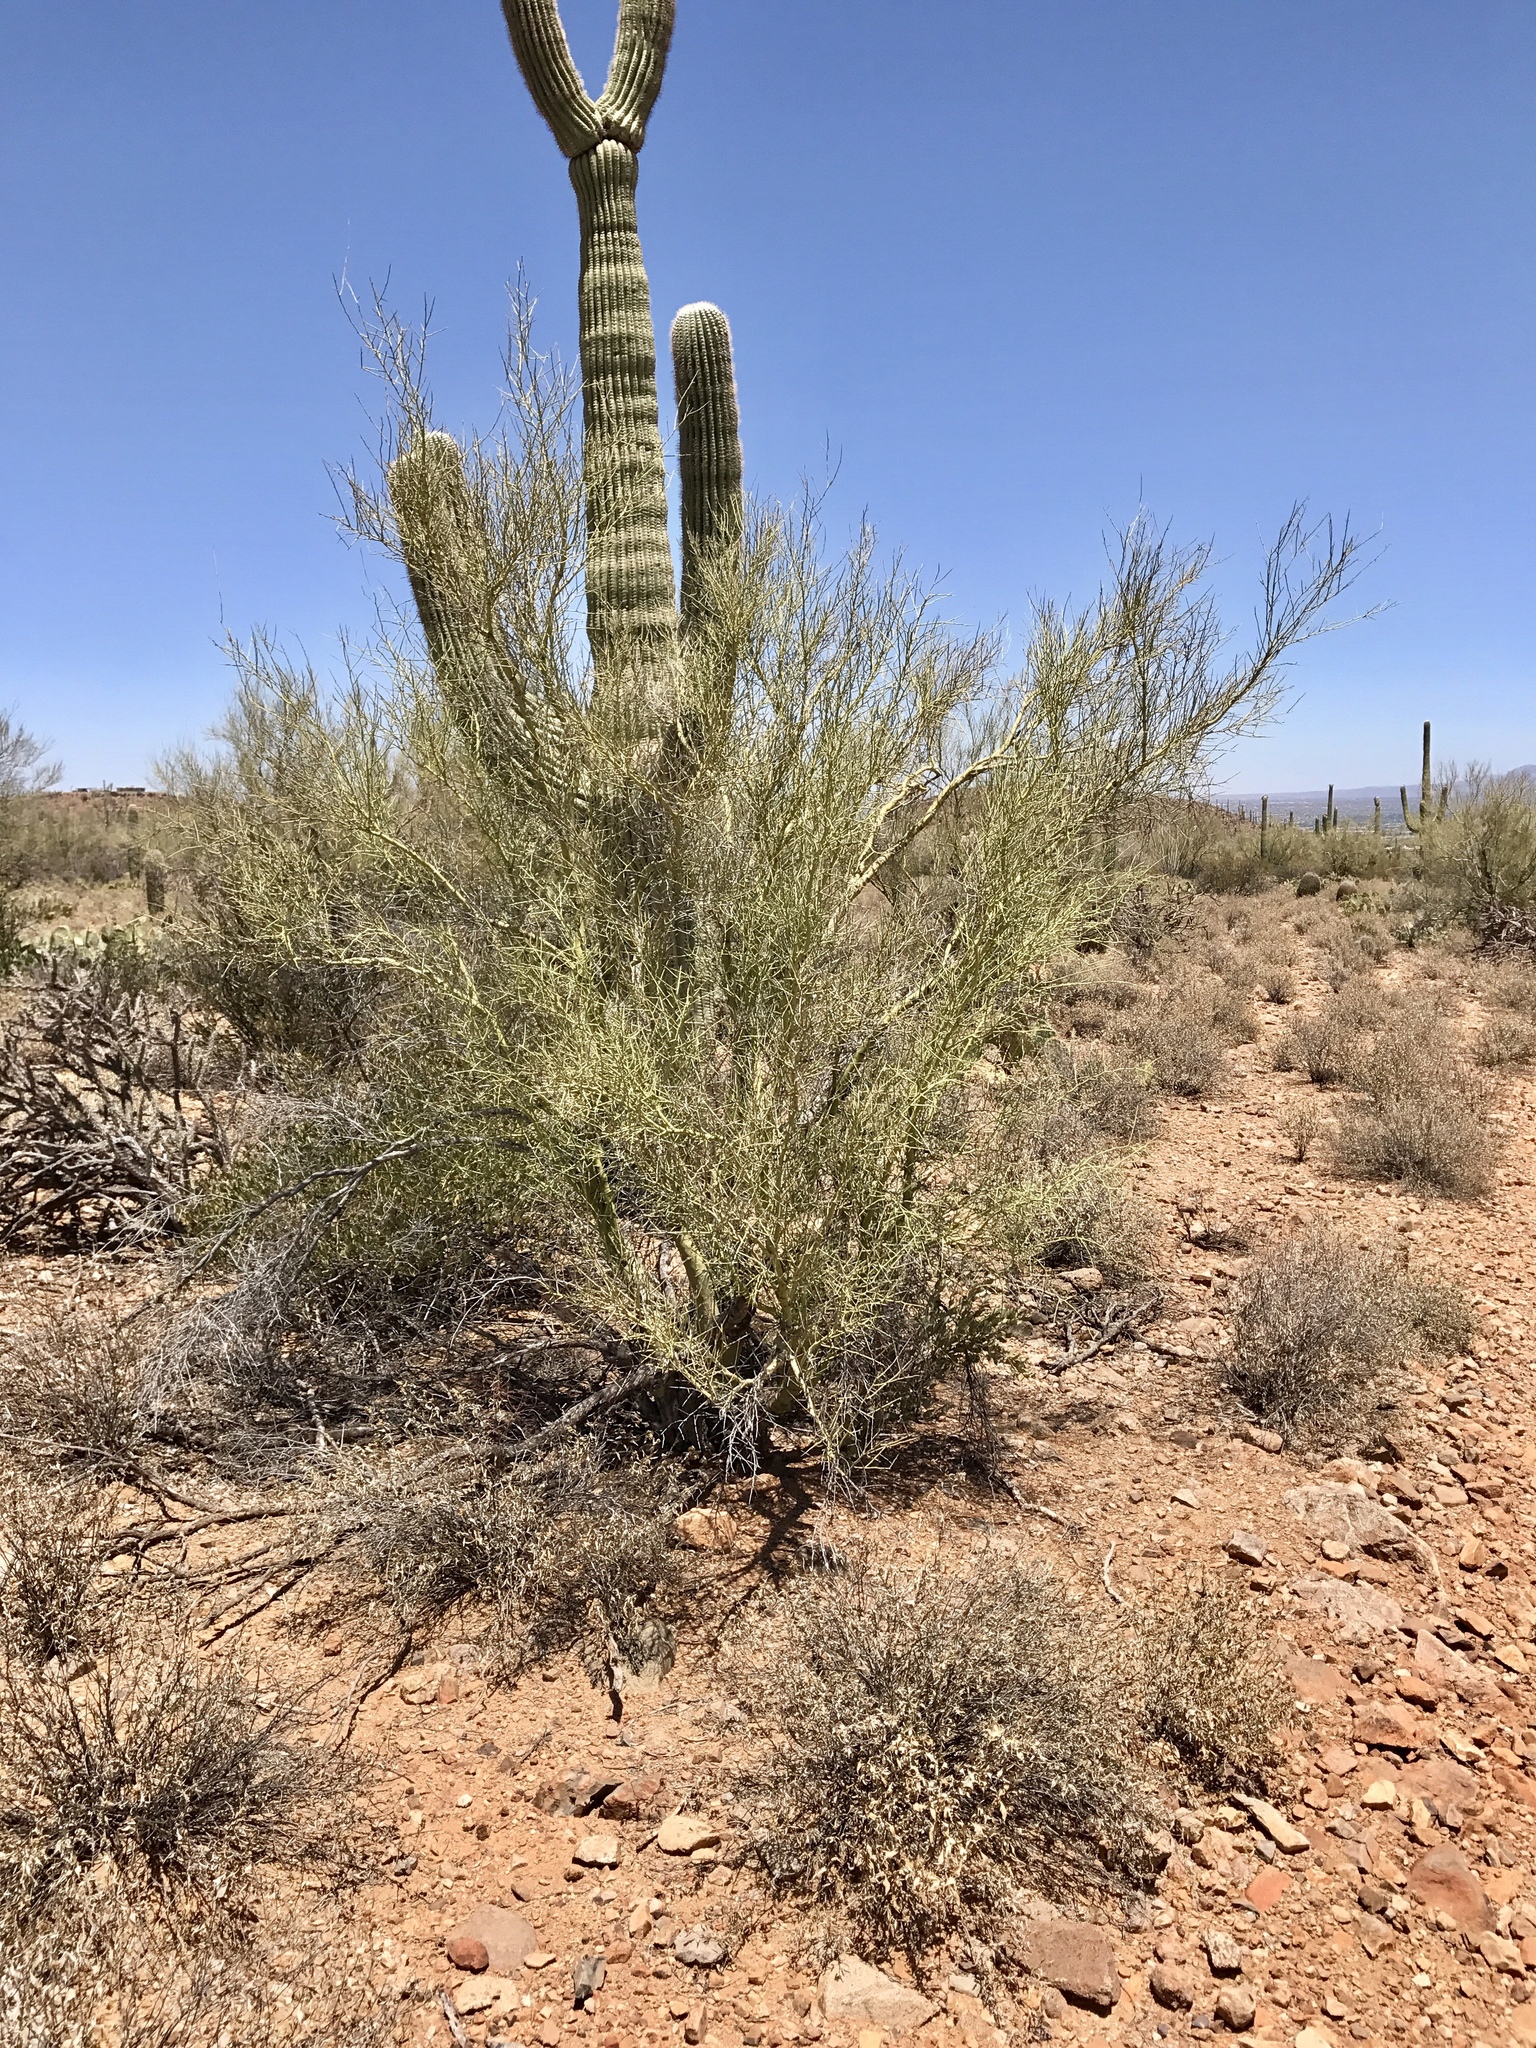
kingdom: Plantae
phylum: Tracheophyta
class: Magnoliopsida
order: Fabales
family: Fabaceae
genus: Parkinsonia
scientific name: Parkinsonia microphylla
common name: Yellow paloverde
